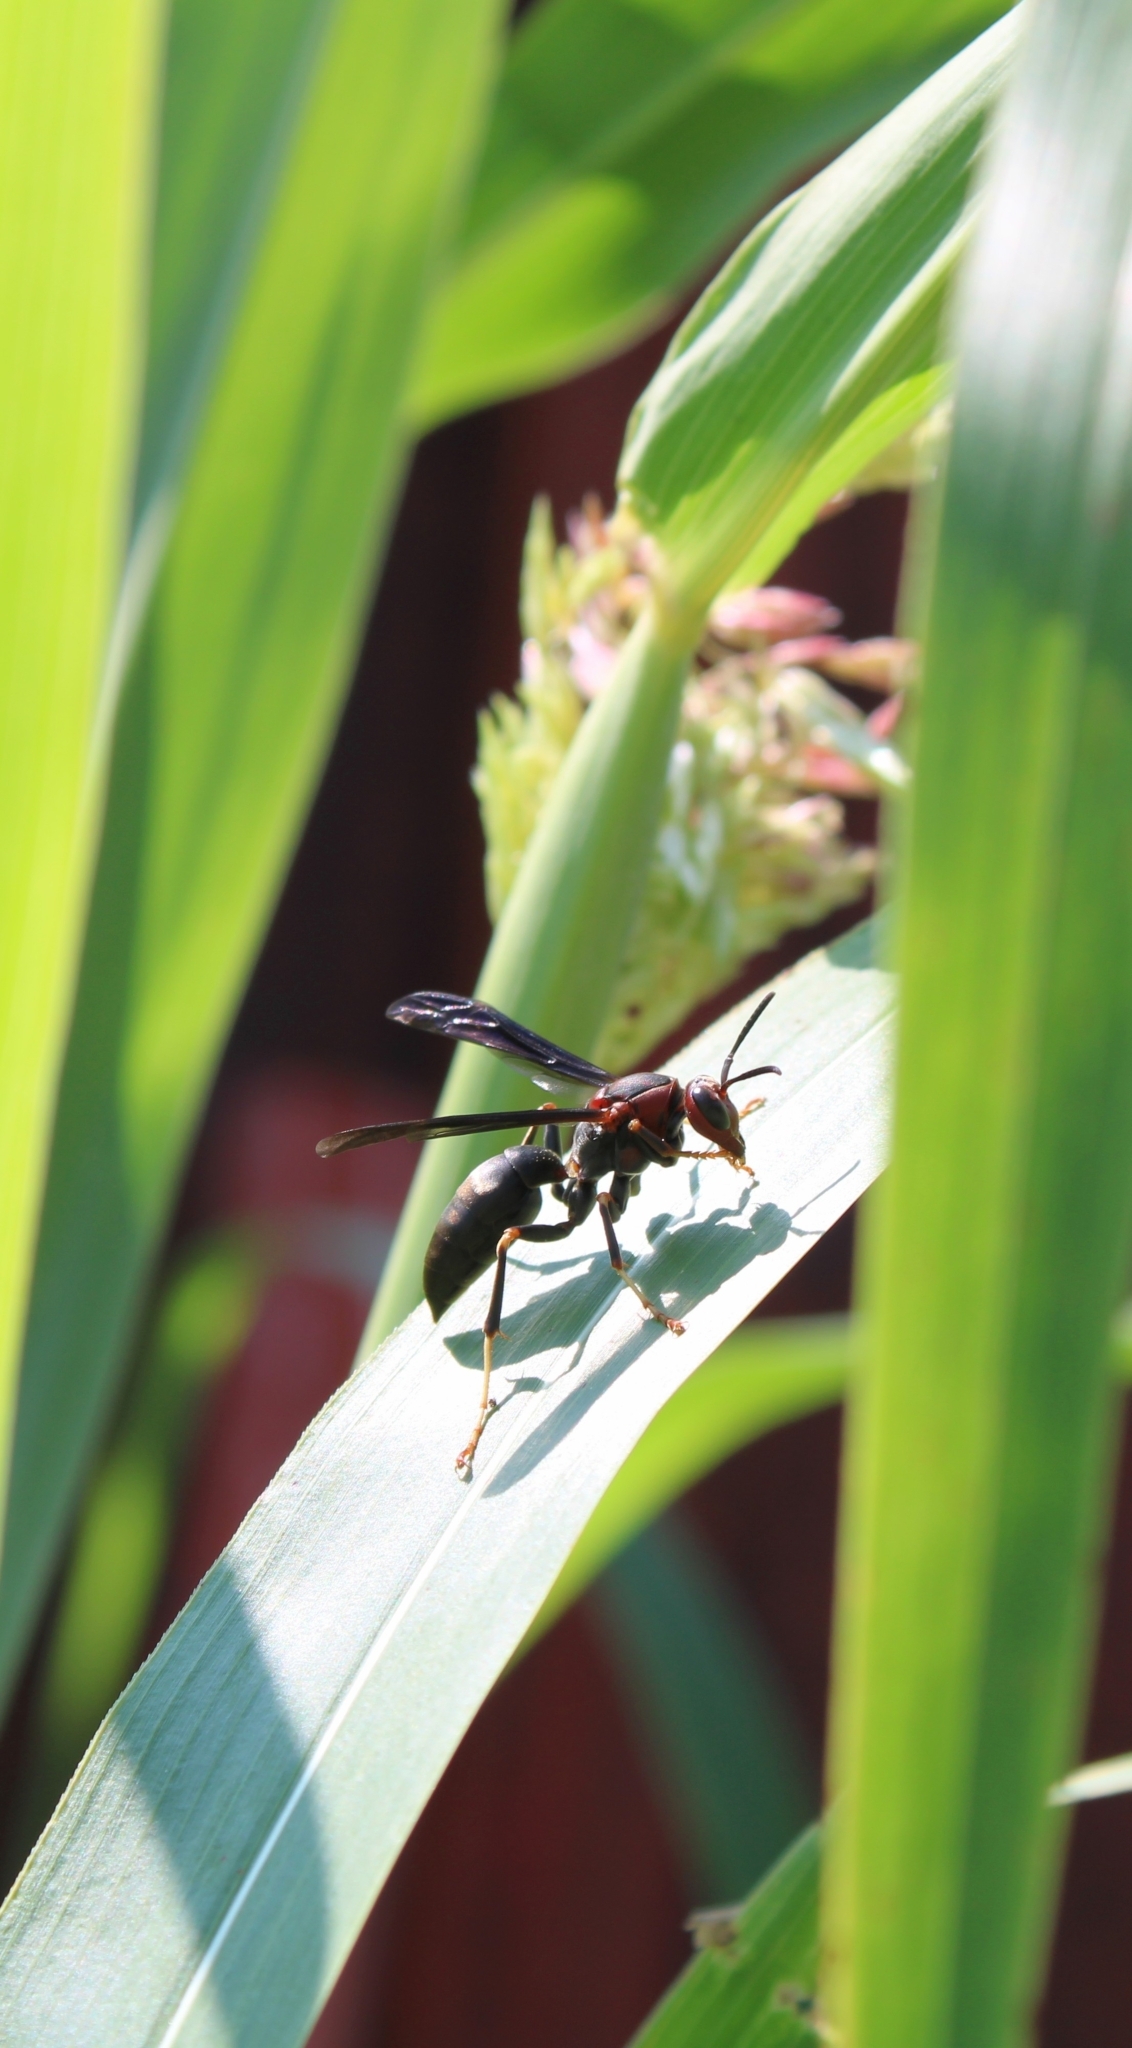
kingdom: Animalia
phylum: Arthropoda
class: Insecta
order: Hymenoptera
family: Eumenidae
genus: Polistes
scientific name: Polistes metricus
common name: Metric paper wasp
